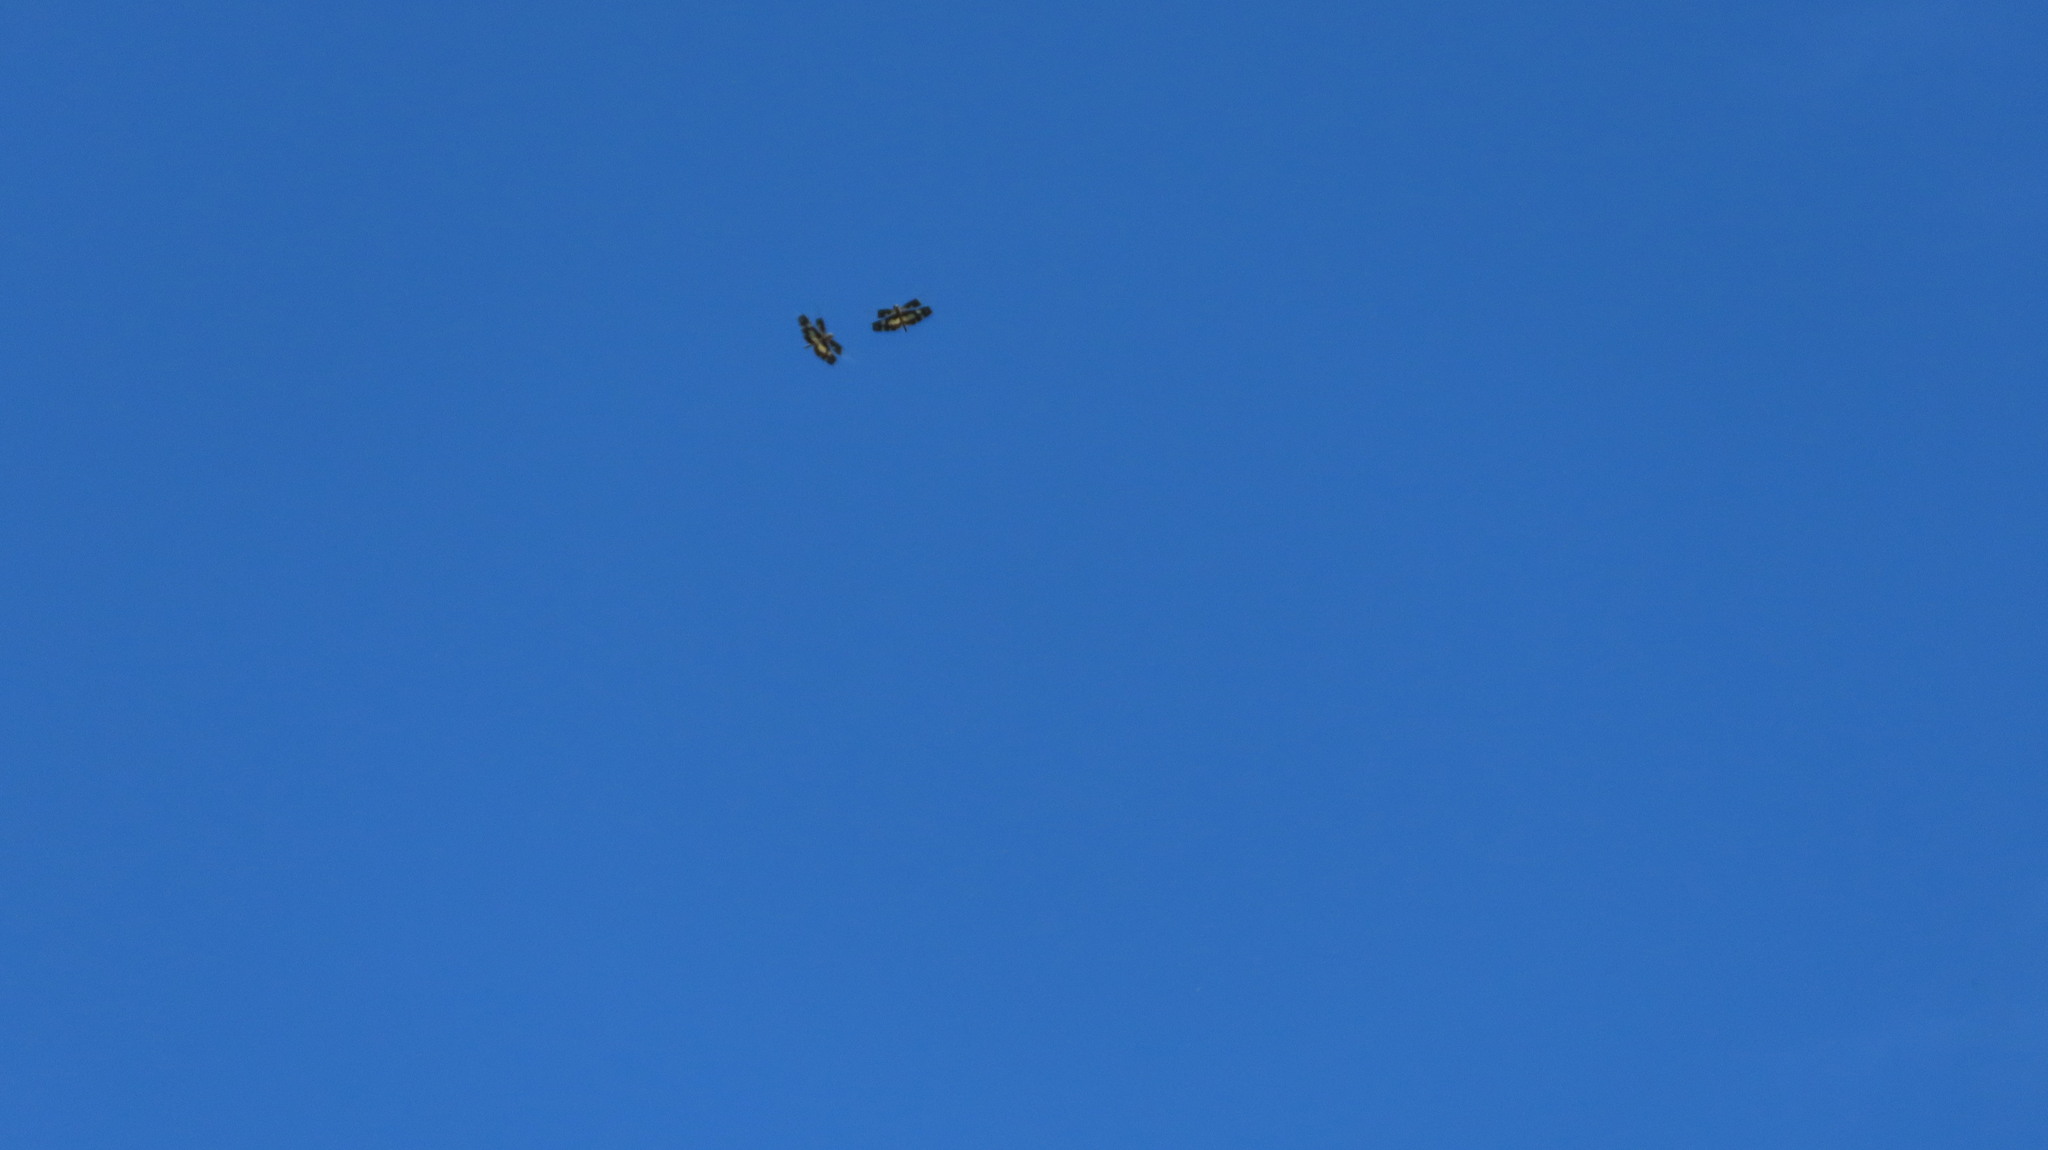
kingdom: Animalia
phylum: Arthropoda
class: Insecta
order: Odonata
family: Libellulidae
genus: Rhyothemis
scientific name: Rhyothemis variegata
